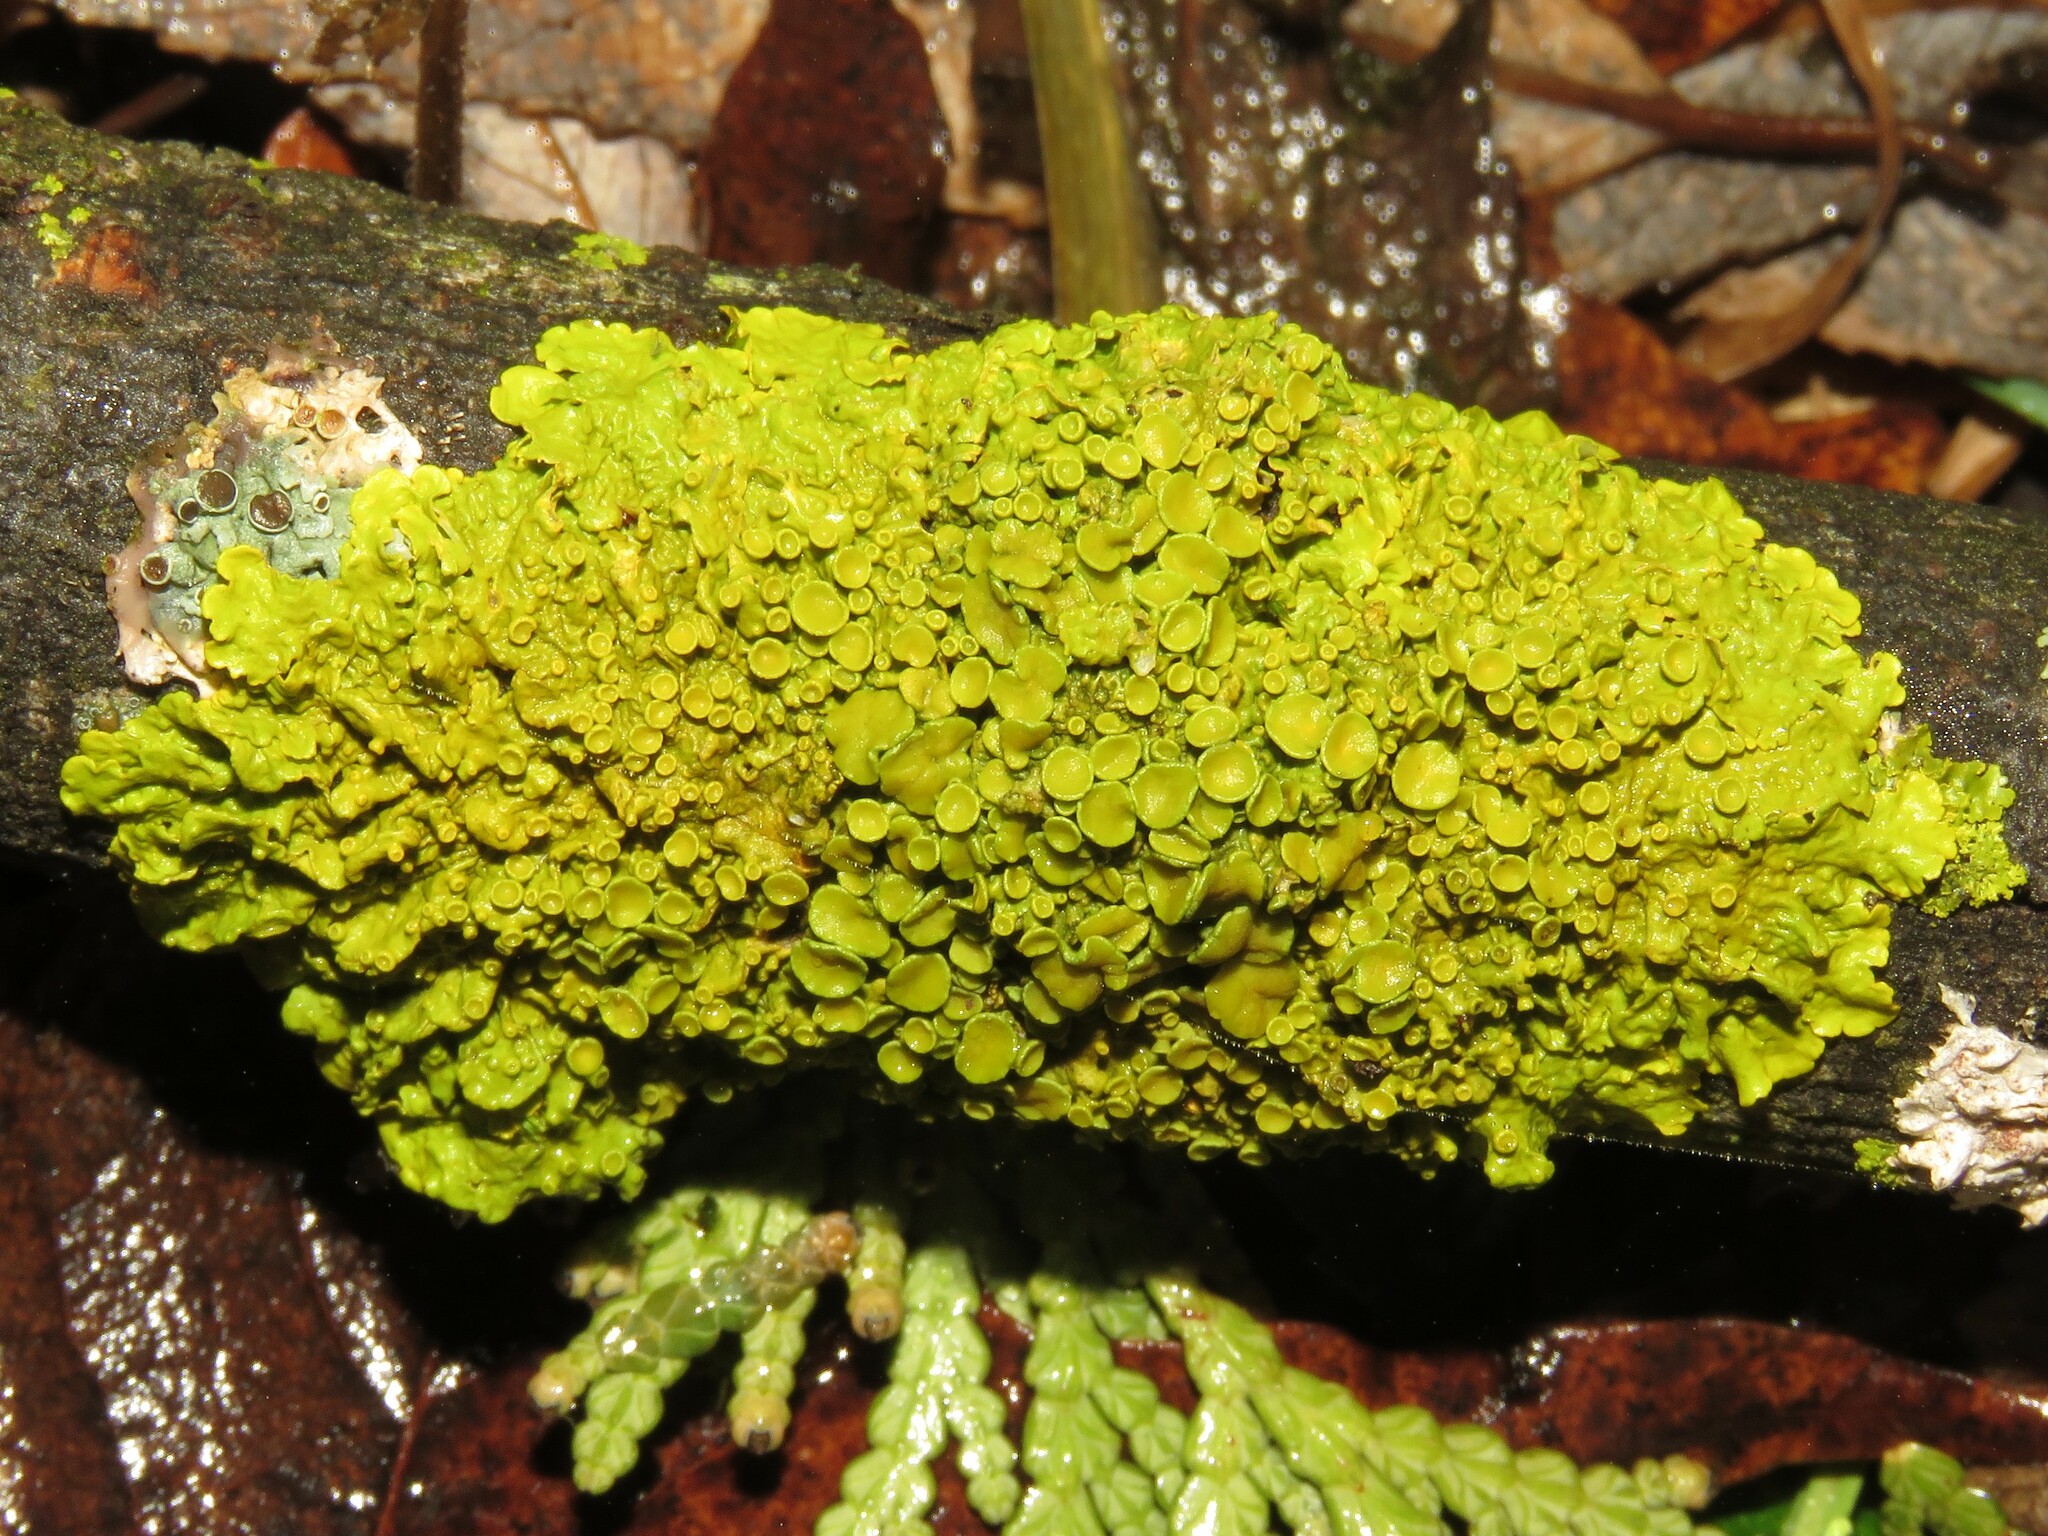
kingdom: Fungi
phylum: Ascomycota
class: Lecanoromycetes
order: Teloschistales
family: Teloschistaceae
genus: Xanthoria
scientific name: Xanthoria parietina
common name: Common orange lichen
